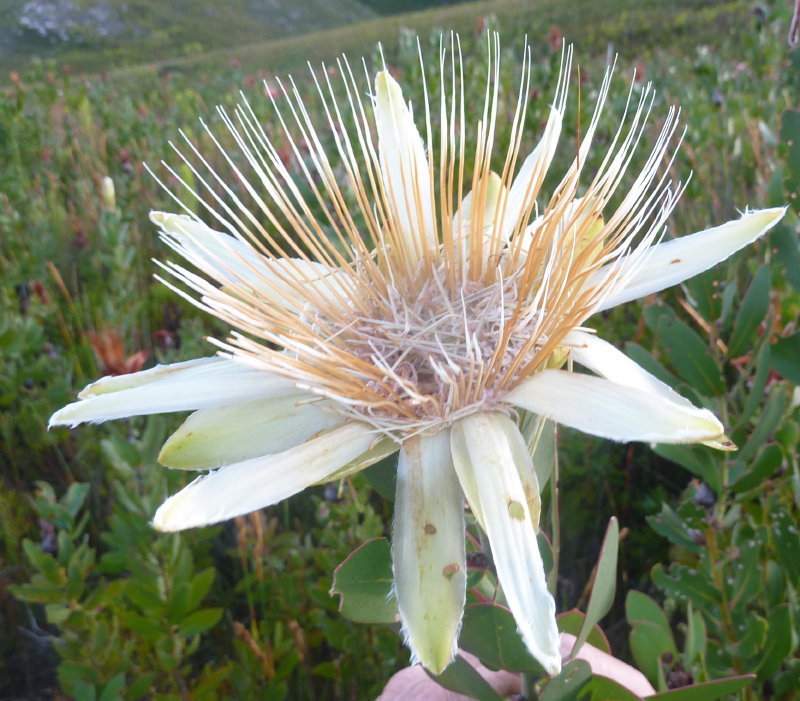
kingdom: Plantae
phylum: Tracheophyta
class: Magnoliopsida
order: Proteales
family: Proteaceae
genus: Protea
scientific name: Protea aurea
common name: Shuttlecock sugarbush
